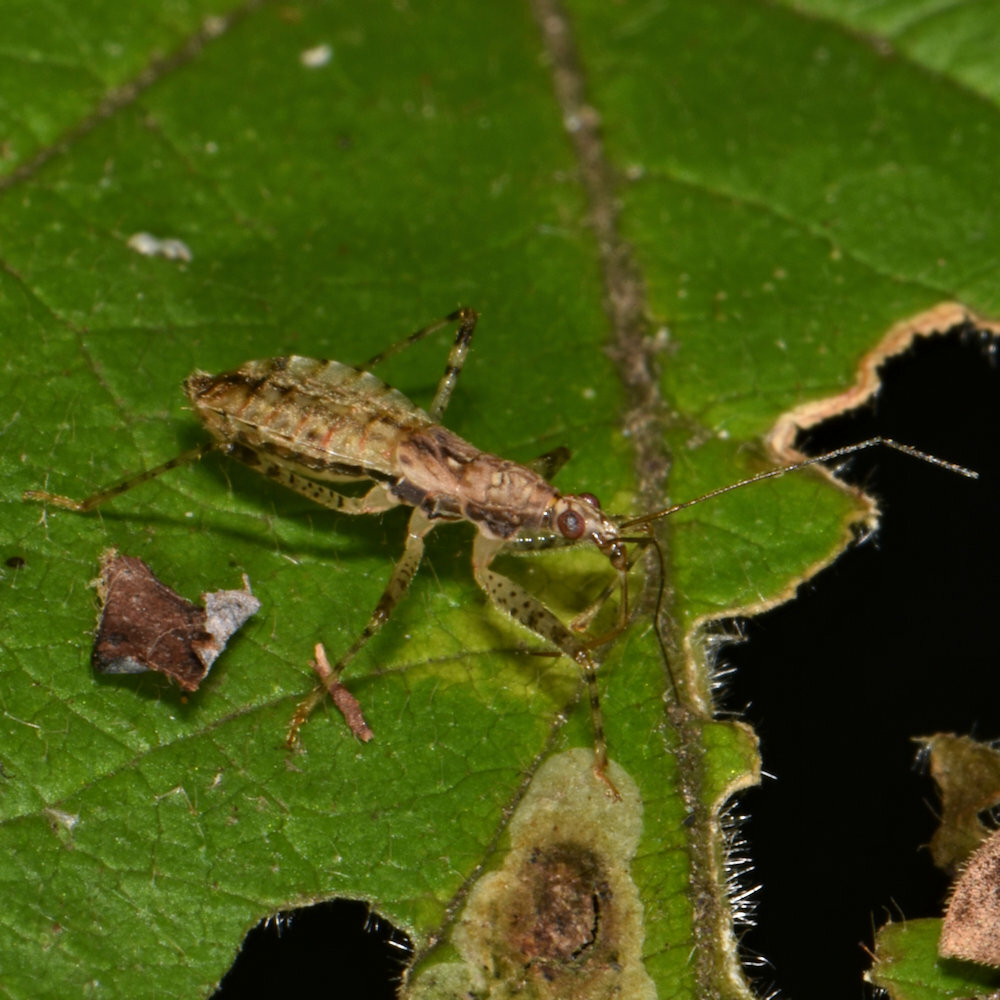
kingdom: Animalia
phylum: Arthropoda
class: Insecta
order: Hemiptera
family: Nabidae
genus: Hoplistoscelis
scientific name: Hoplistoscelis pallescens
